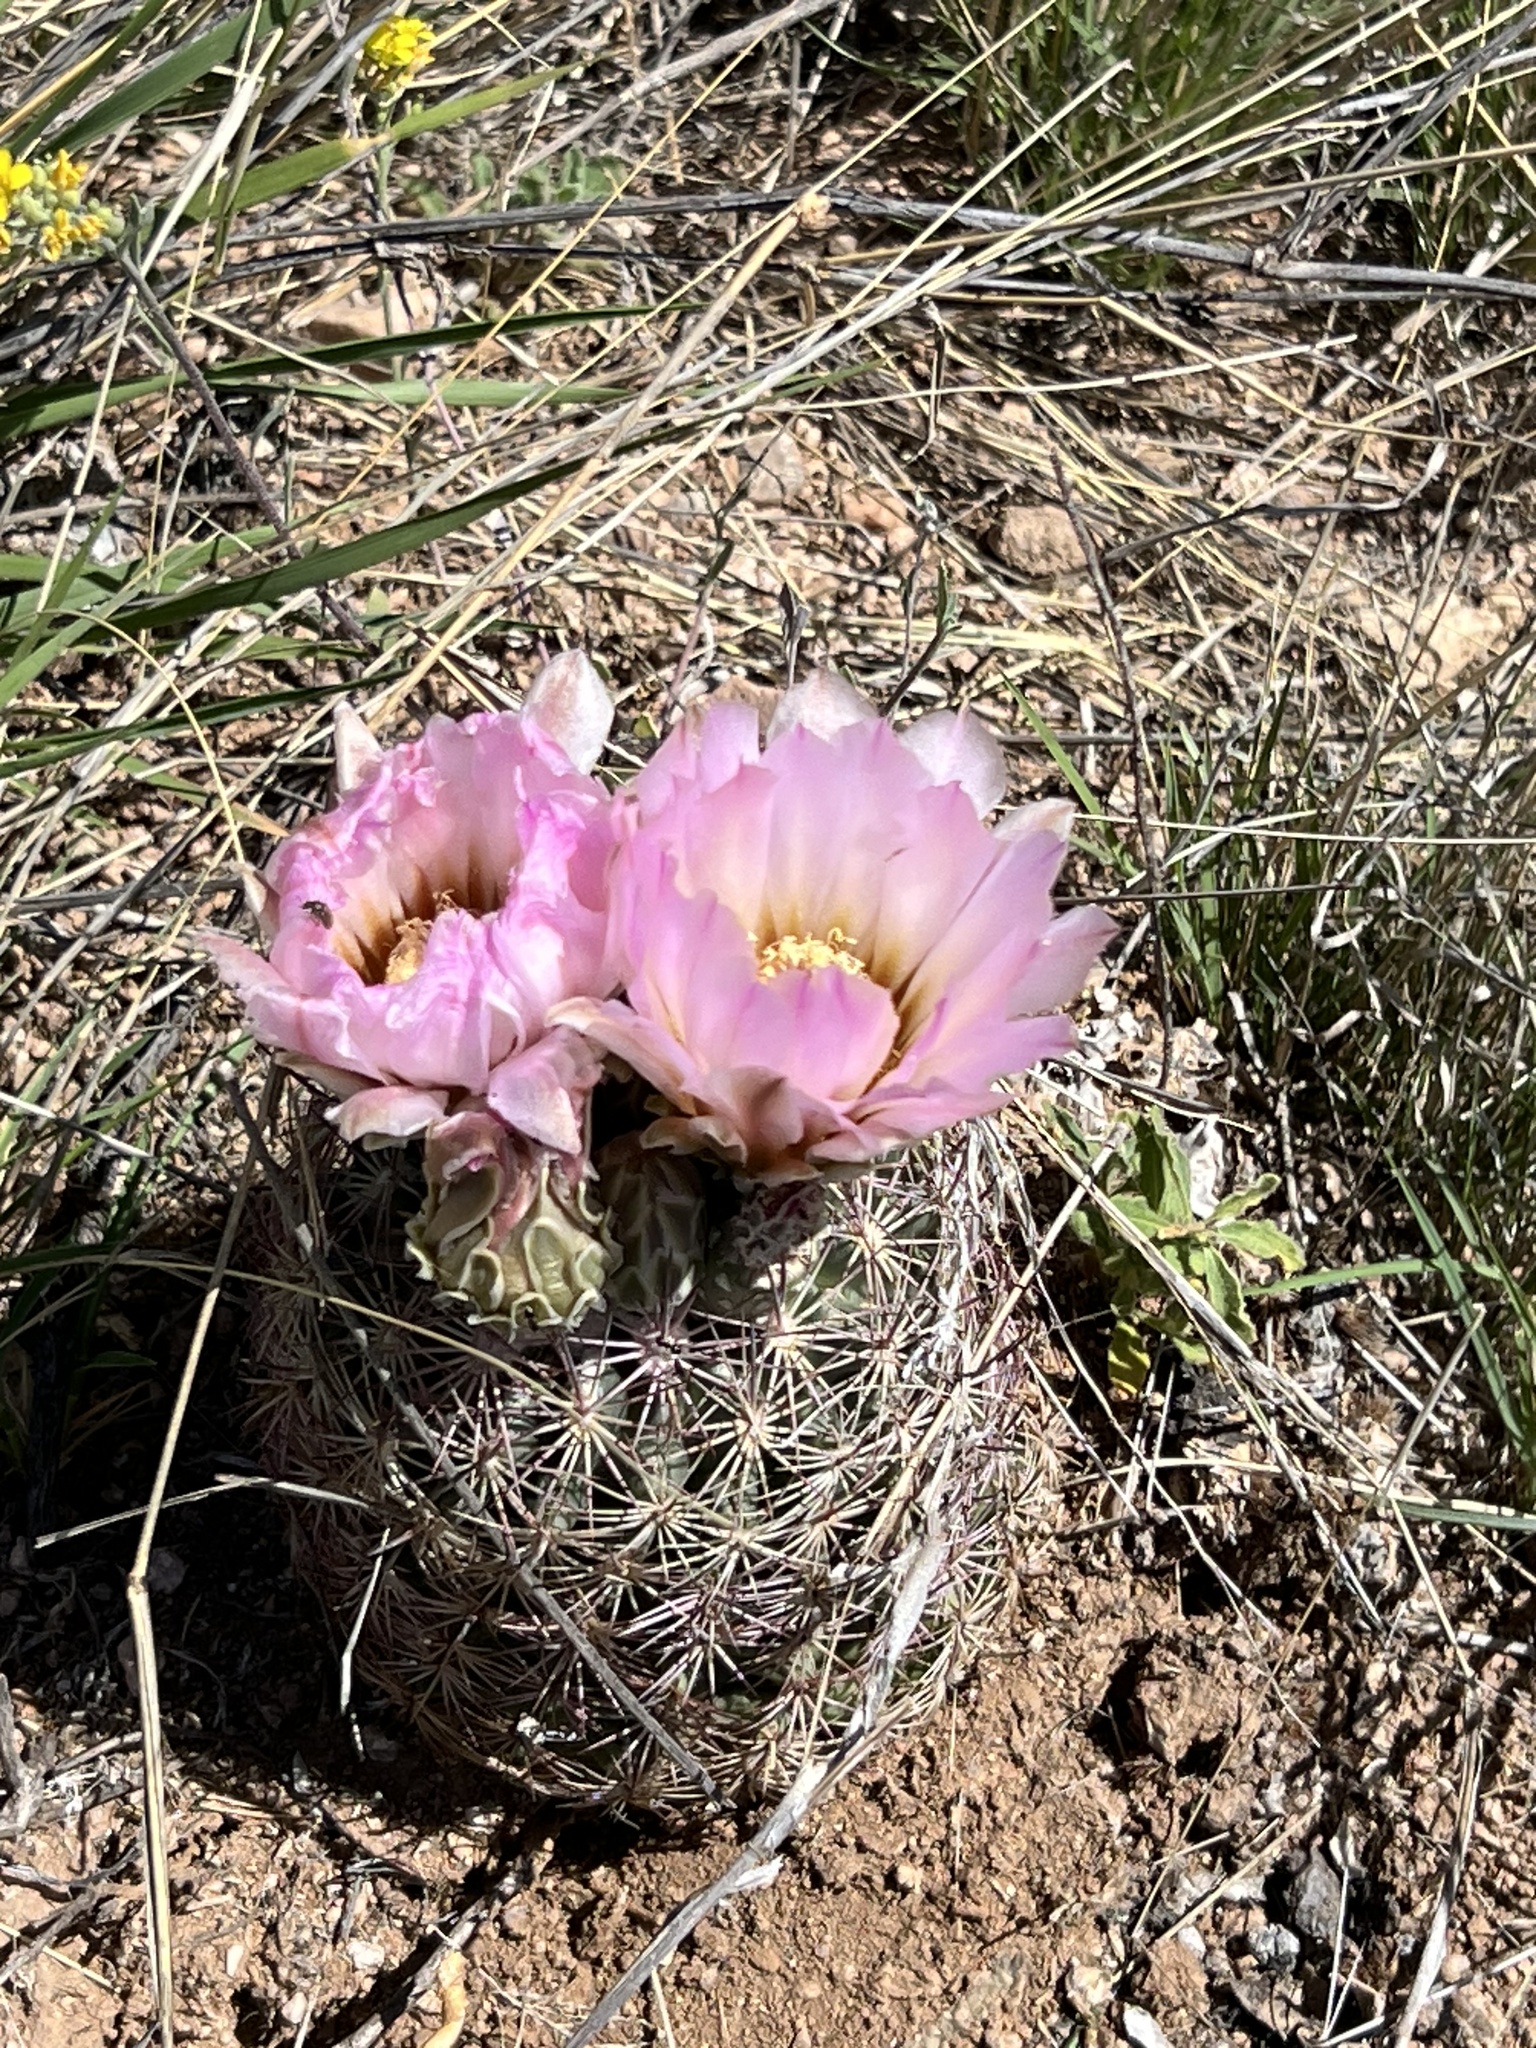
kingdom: Plantae
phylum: Tracheophyta
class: Magnoliopsida
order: Caryophyllales
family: Cactaceae
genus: Sclerocactus
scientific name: Sclerocactus johnsonii
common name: Eight-spine fishhook cactus
